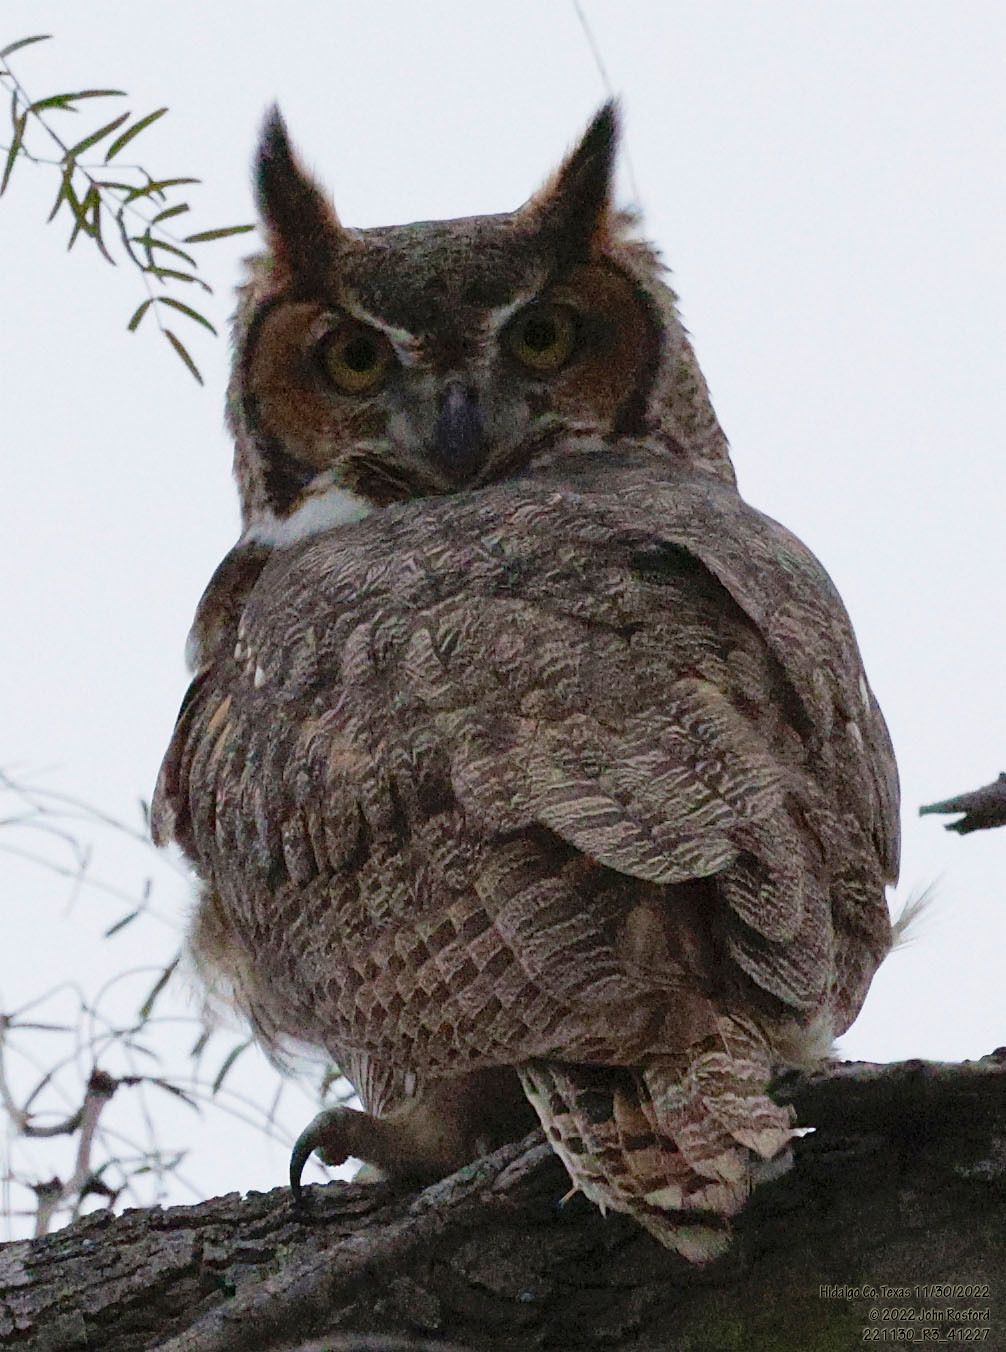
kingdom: Animalia
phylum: Chordata
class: Aves
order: Strigiformes
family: Strigidae
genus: Bubo
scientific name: Bubo virginianus
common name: Great horned owl
